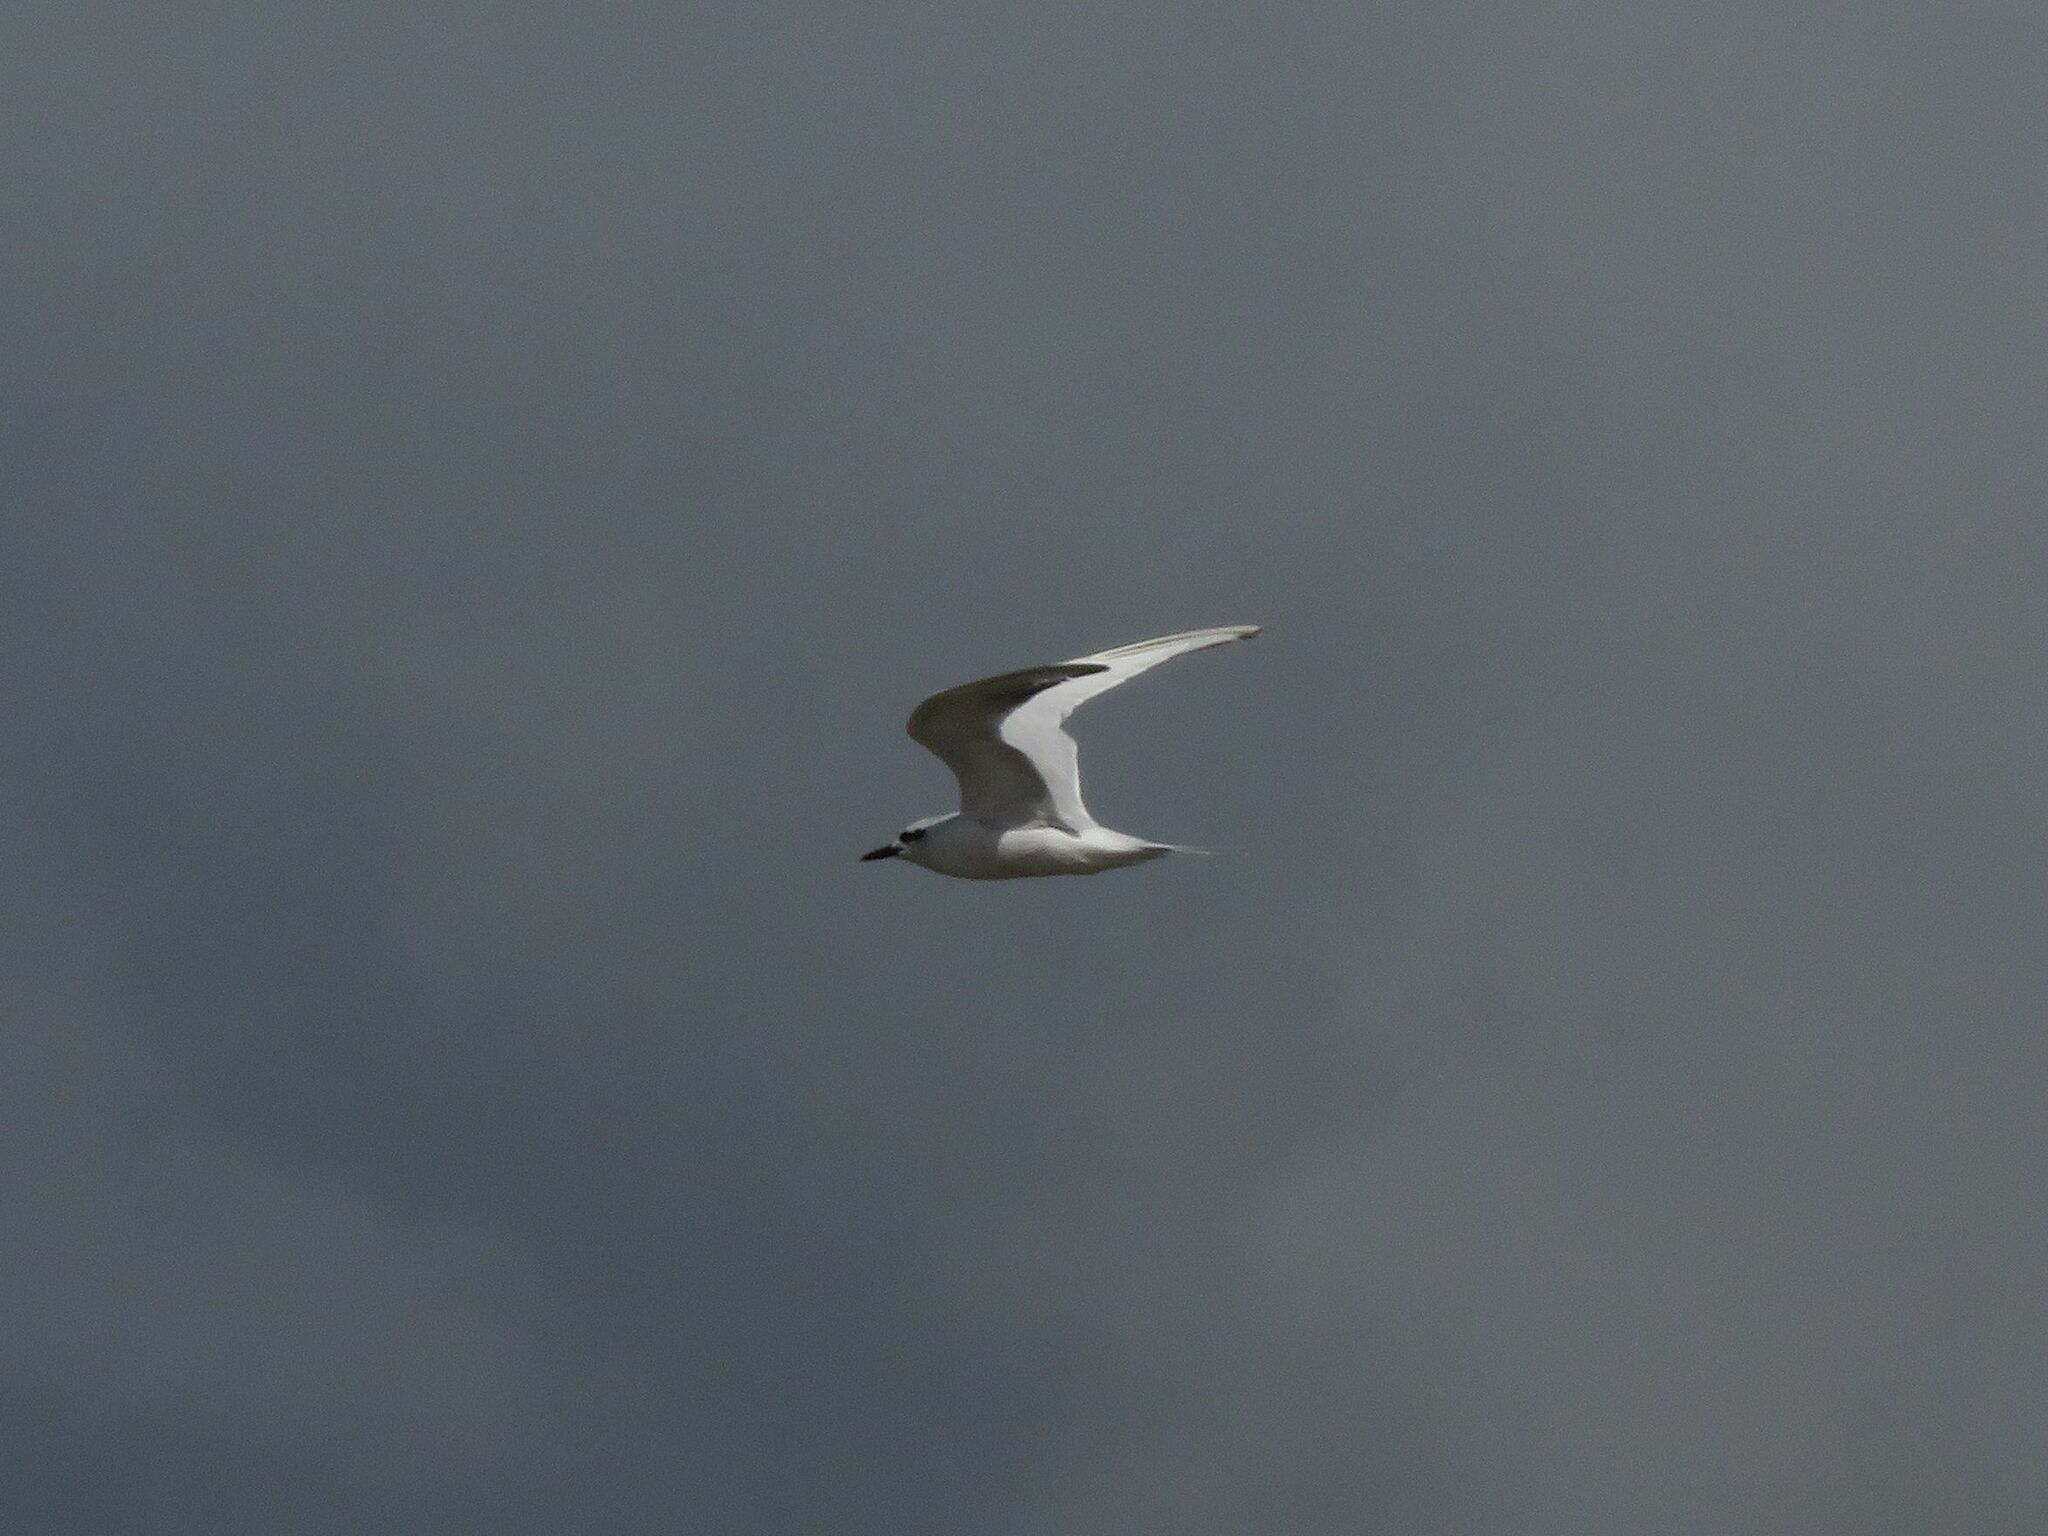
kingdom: Animalia
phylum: Chordata
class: Aves
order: Charadriiformes
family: Laridae
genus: Sterna
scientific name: Sterna trudeaui
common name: Snowy-crowned tern
